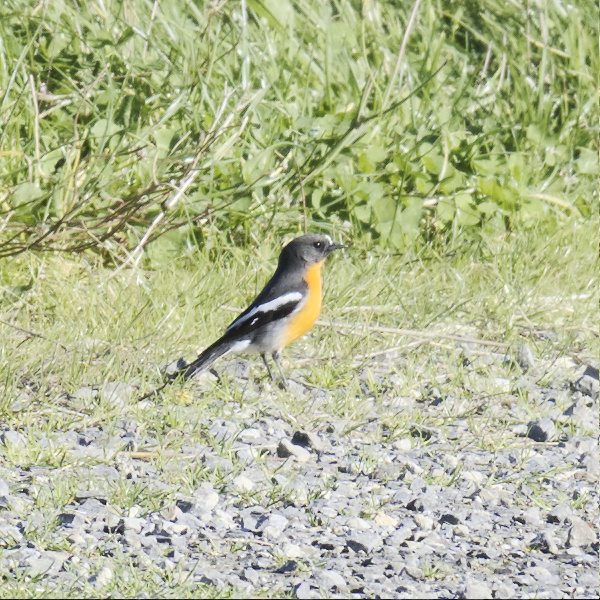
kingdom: Animalia
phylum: Chordata
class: Aves
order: Passeriformes
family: Petroicidae
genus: Petroica
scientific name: Petroica phoenicea
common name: Flame robin
